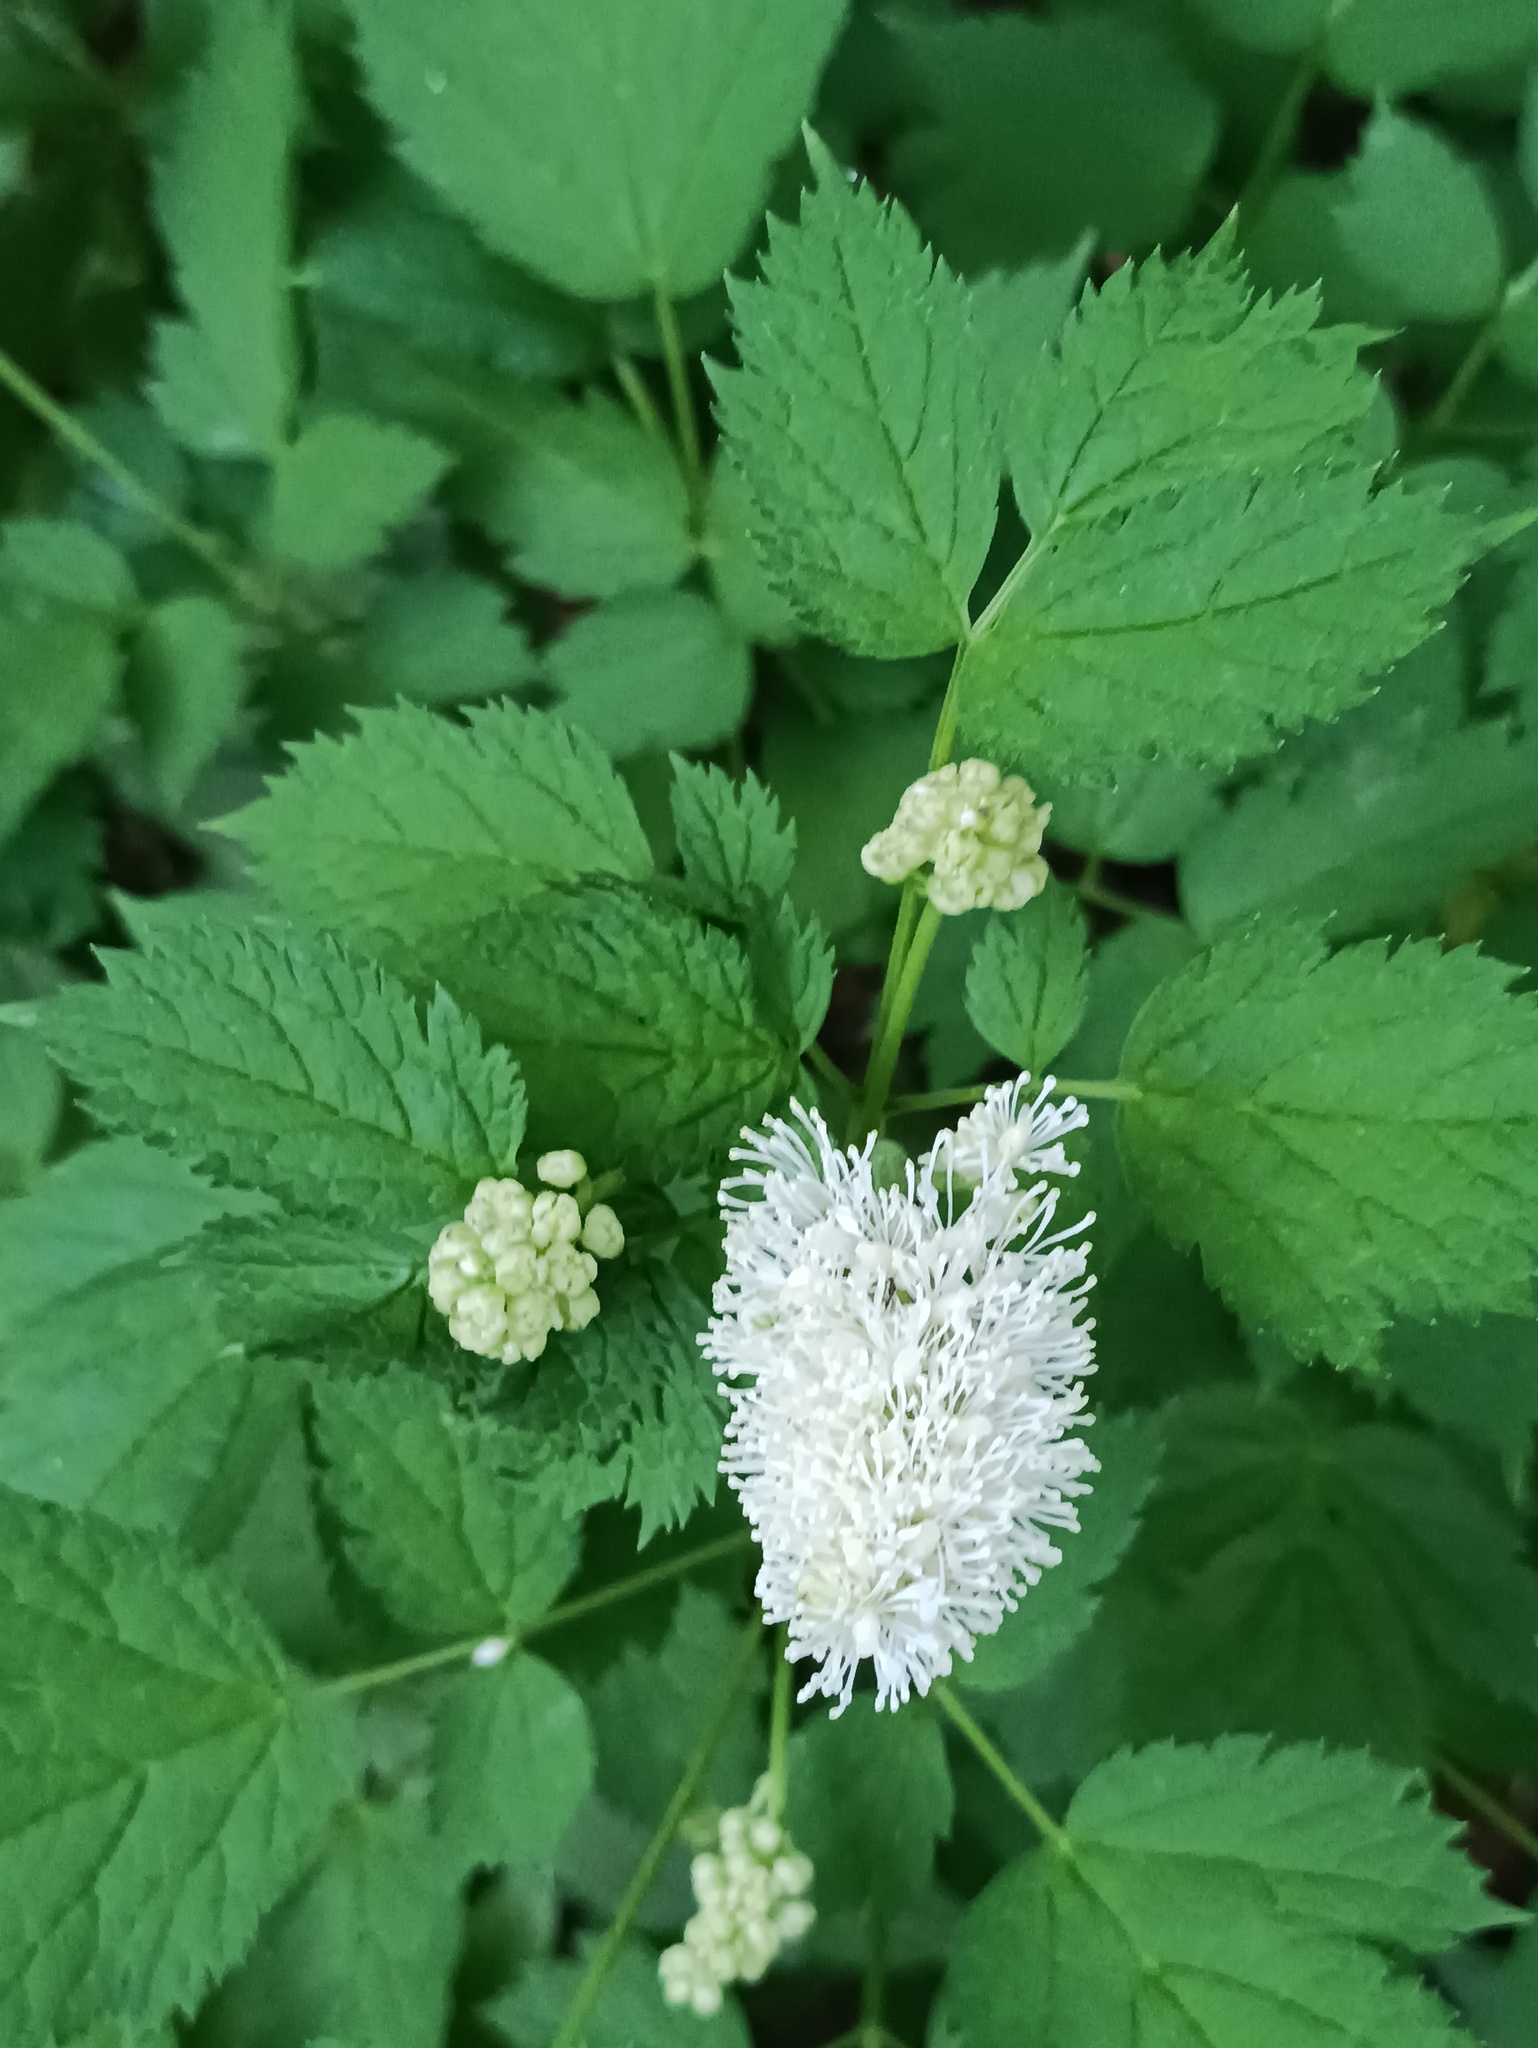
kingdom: Plantae
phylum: Tracheophyta
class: Magnoliopsida
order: Ranunculales
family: Ranunculaceae
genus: Actaea
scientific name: Actaea spicata
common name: Baneberry
